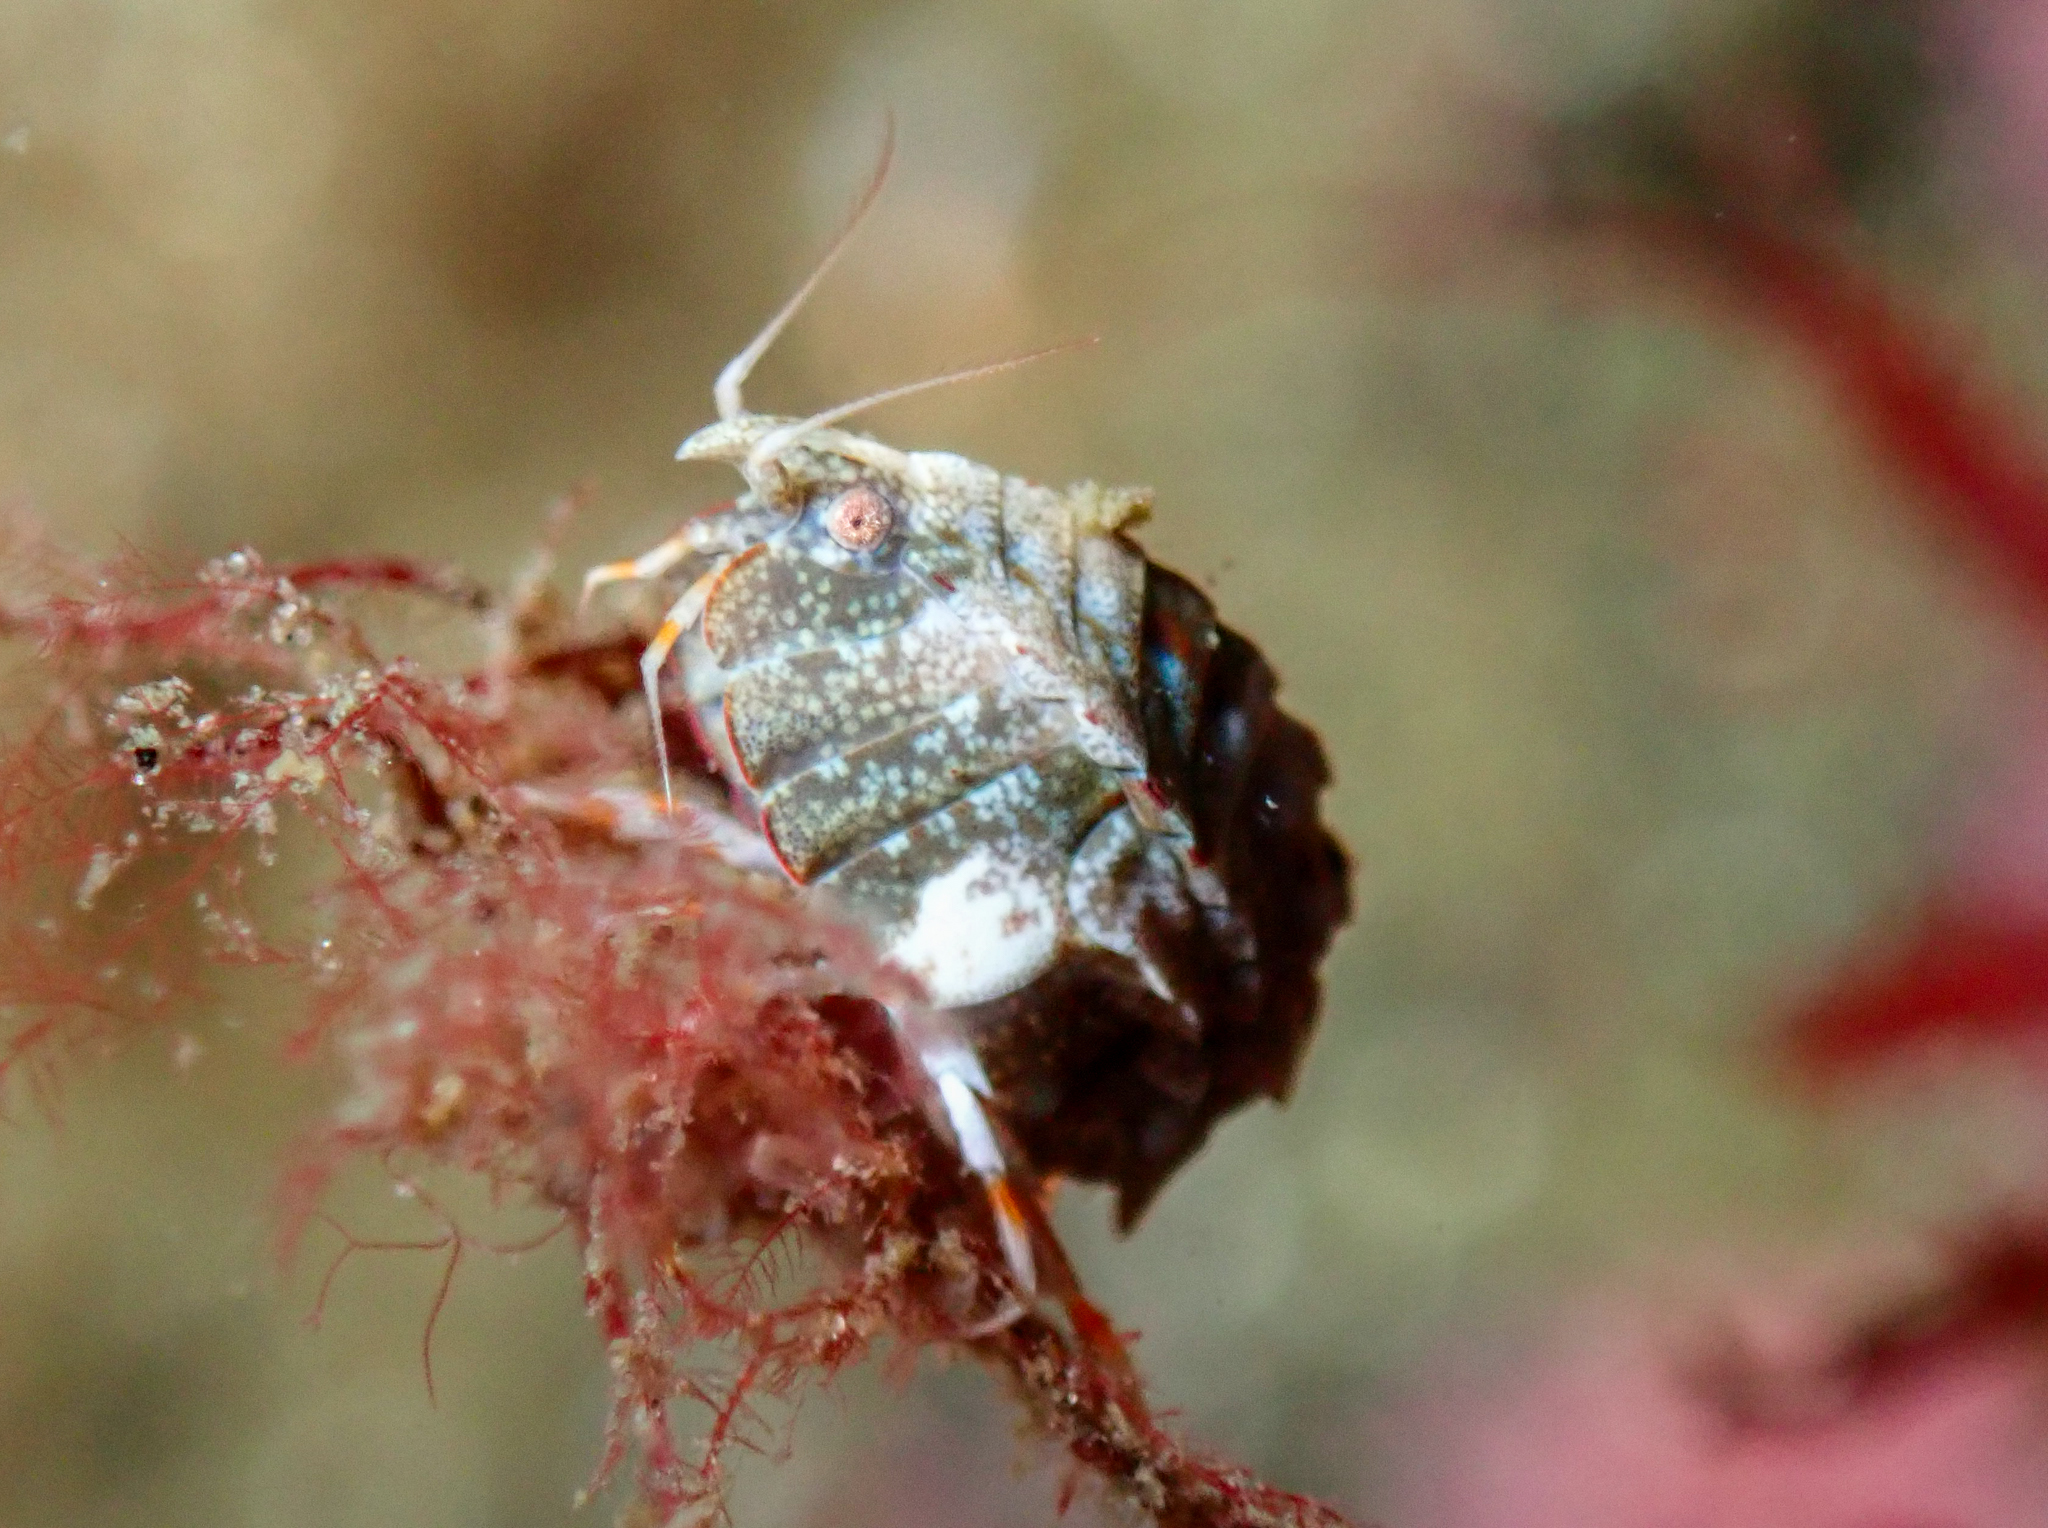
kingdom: Animalia
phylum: Arthropoda
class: Malacostraca
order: Amphipoda
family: Pleustidae
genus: Pleustes
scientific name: Pleustes panoplus
